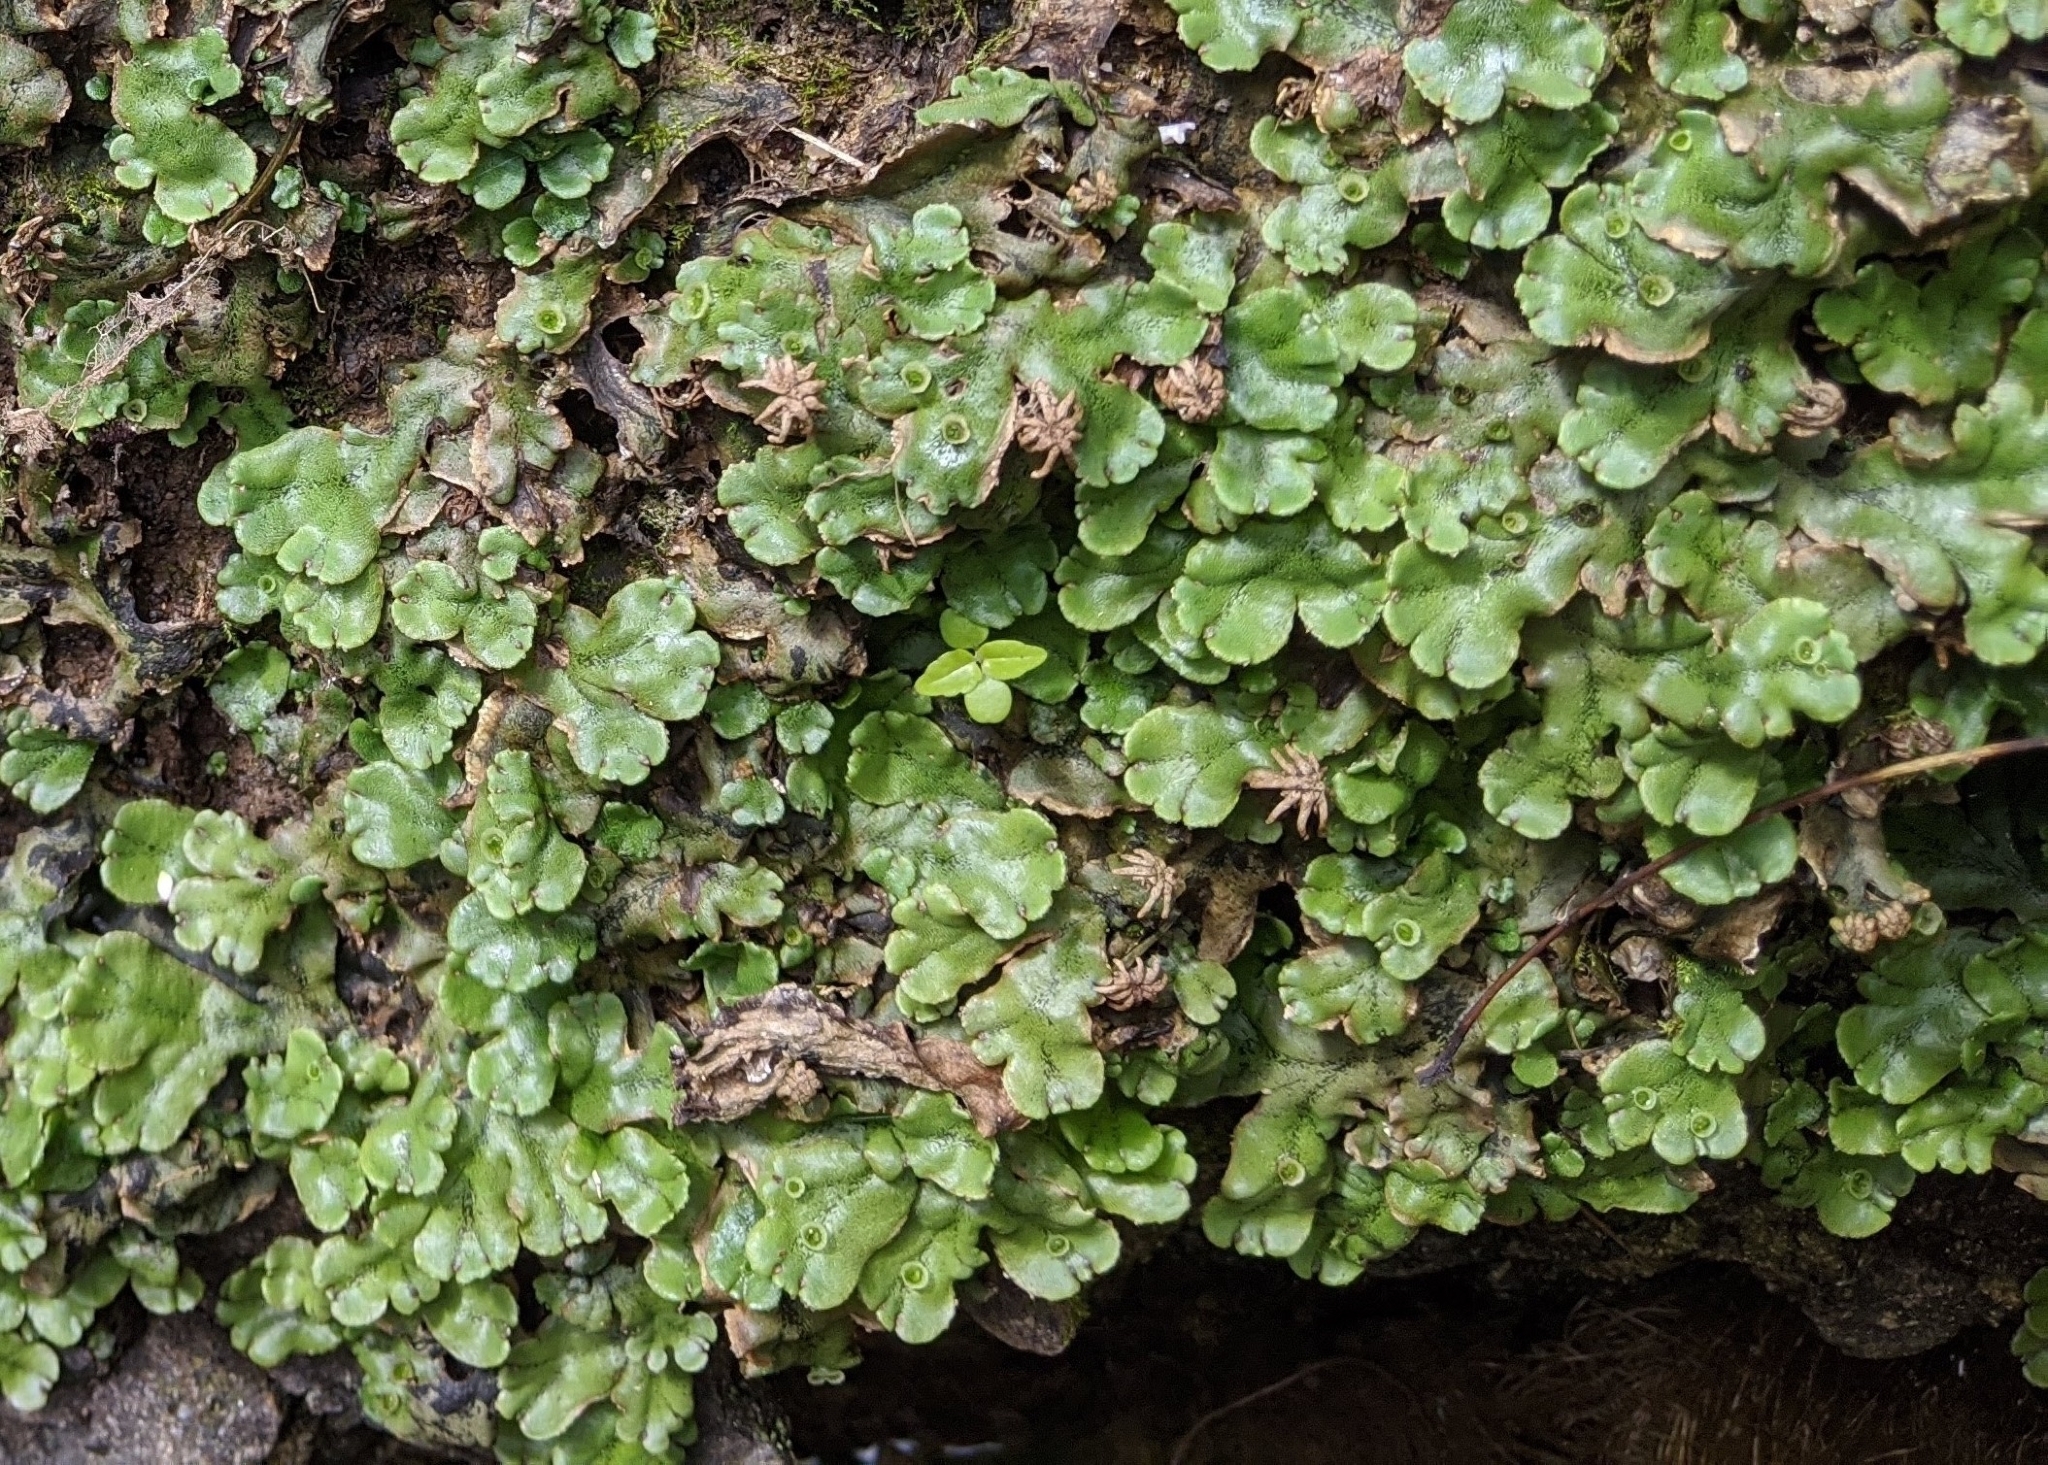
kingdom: Plantae
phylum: Marchantiophyta
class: Marchantiopsida
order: Marchantiales
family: Marchantiaceae
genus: Marchantia
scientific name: Marchantia polymorpha
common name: Common liverwort
